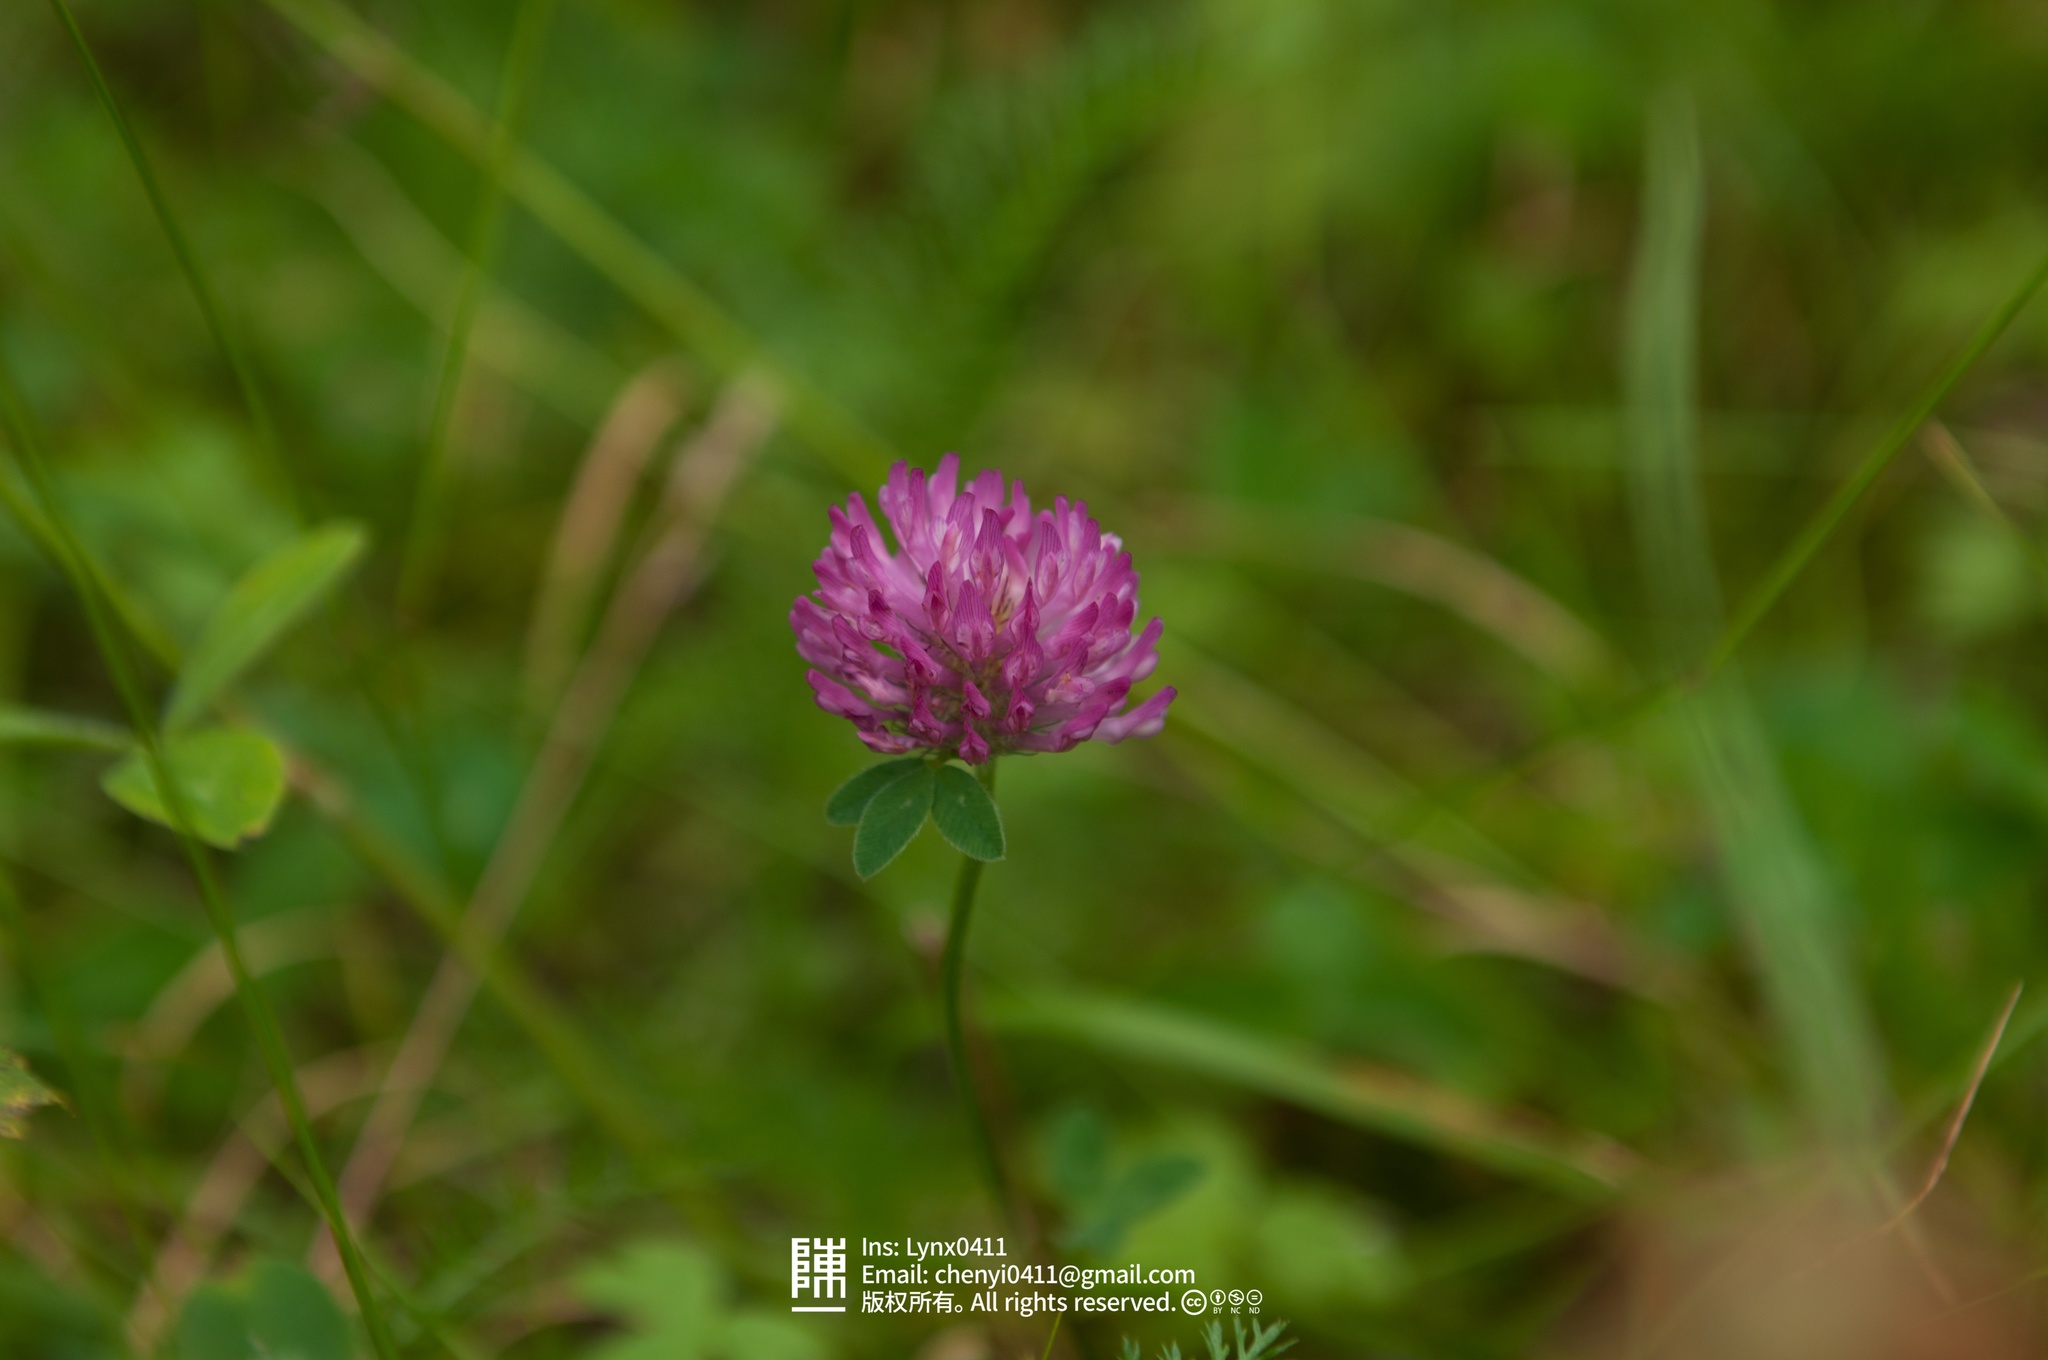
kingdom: Plantae
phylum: Tracheophyta
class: Magnoliopsida
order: Fabales
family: Fabaceae
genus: Trifolium
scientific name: Trifolium pratense
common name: Red clover
